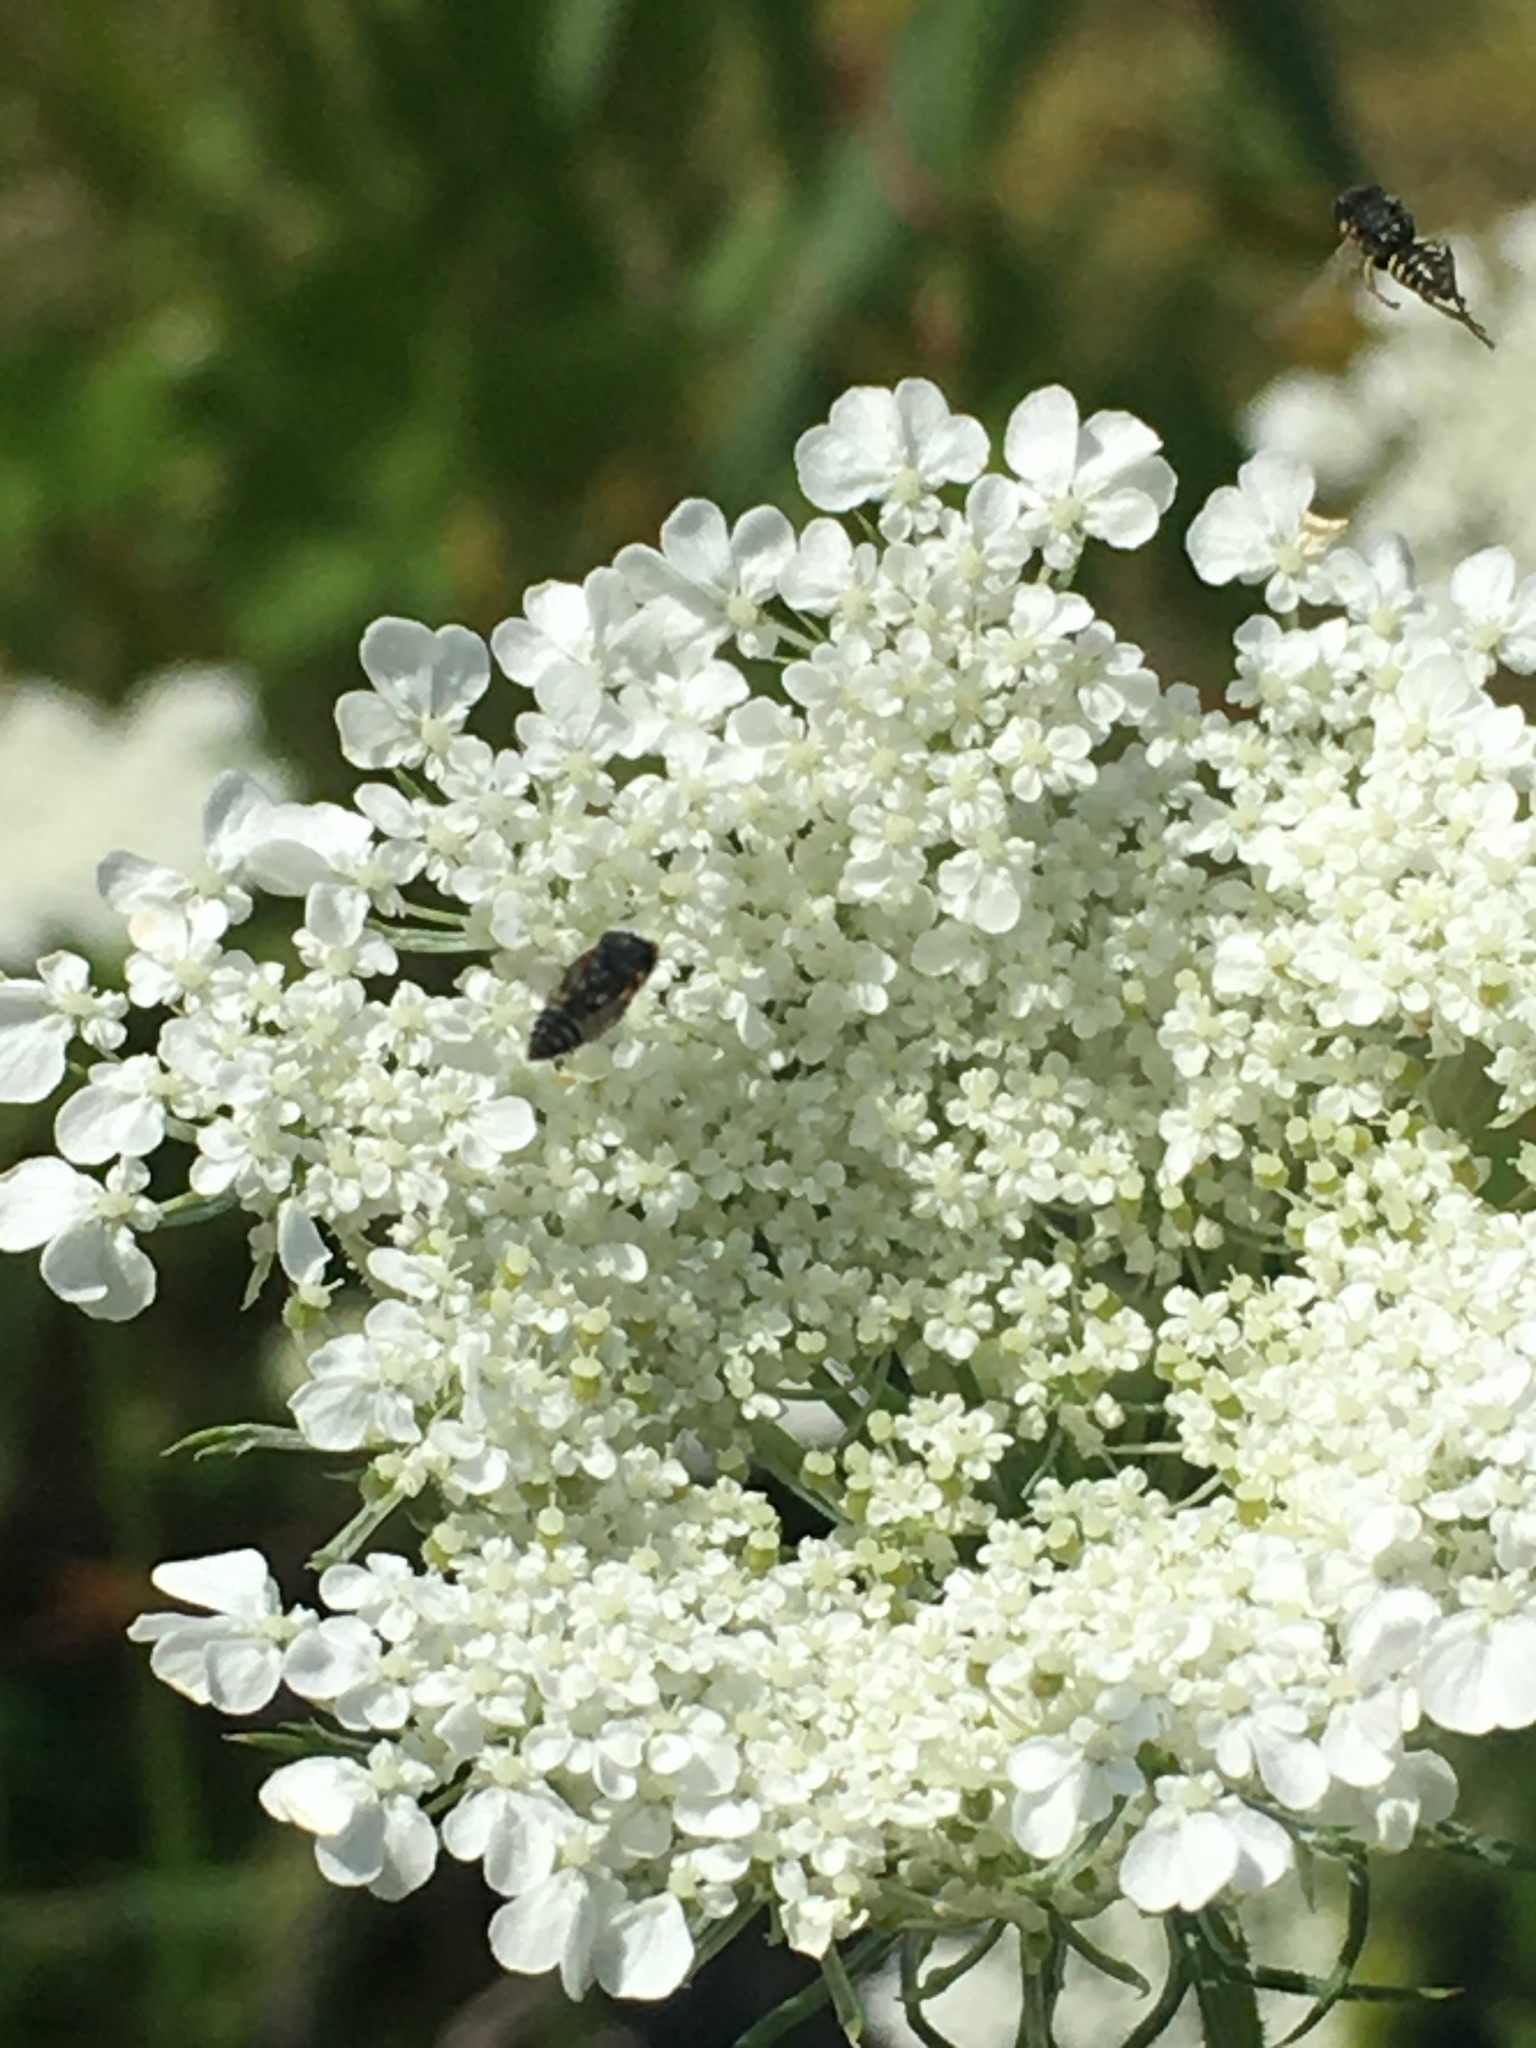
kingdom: Animalia
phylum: Arthropoda
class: Insecta
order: Hymenoptera
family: Crabronidae
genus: Oxybelus
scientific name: Oxybelus
